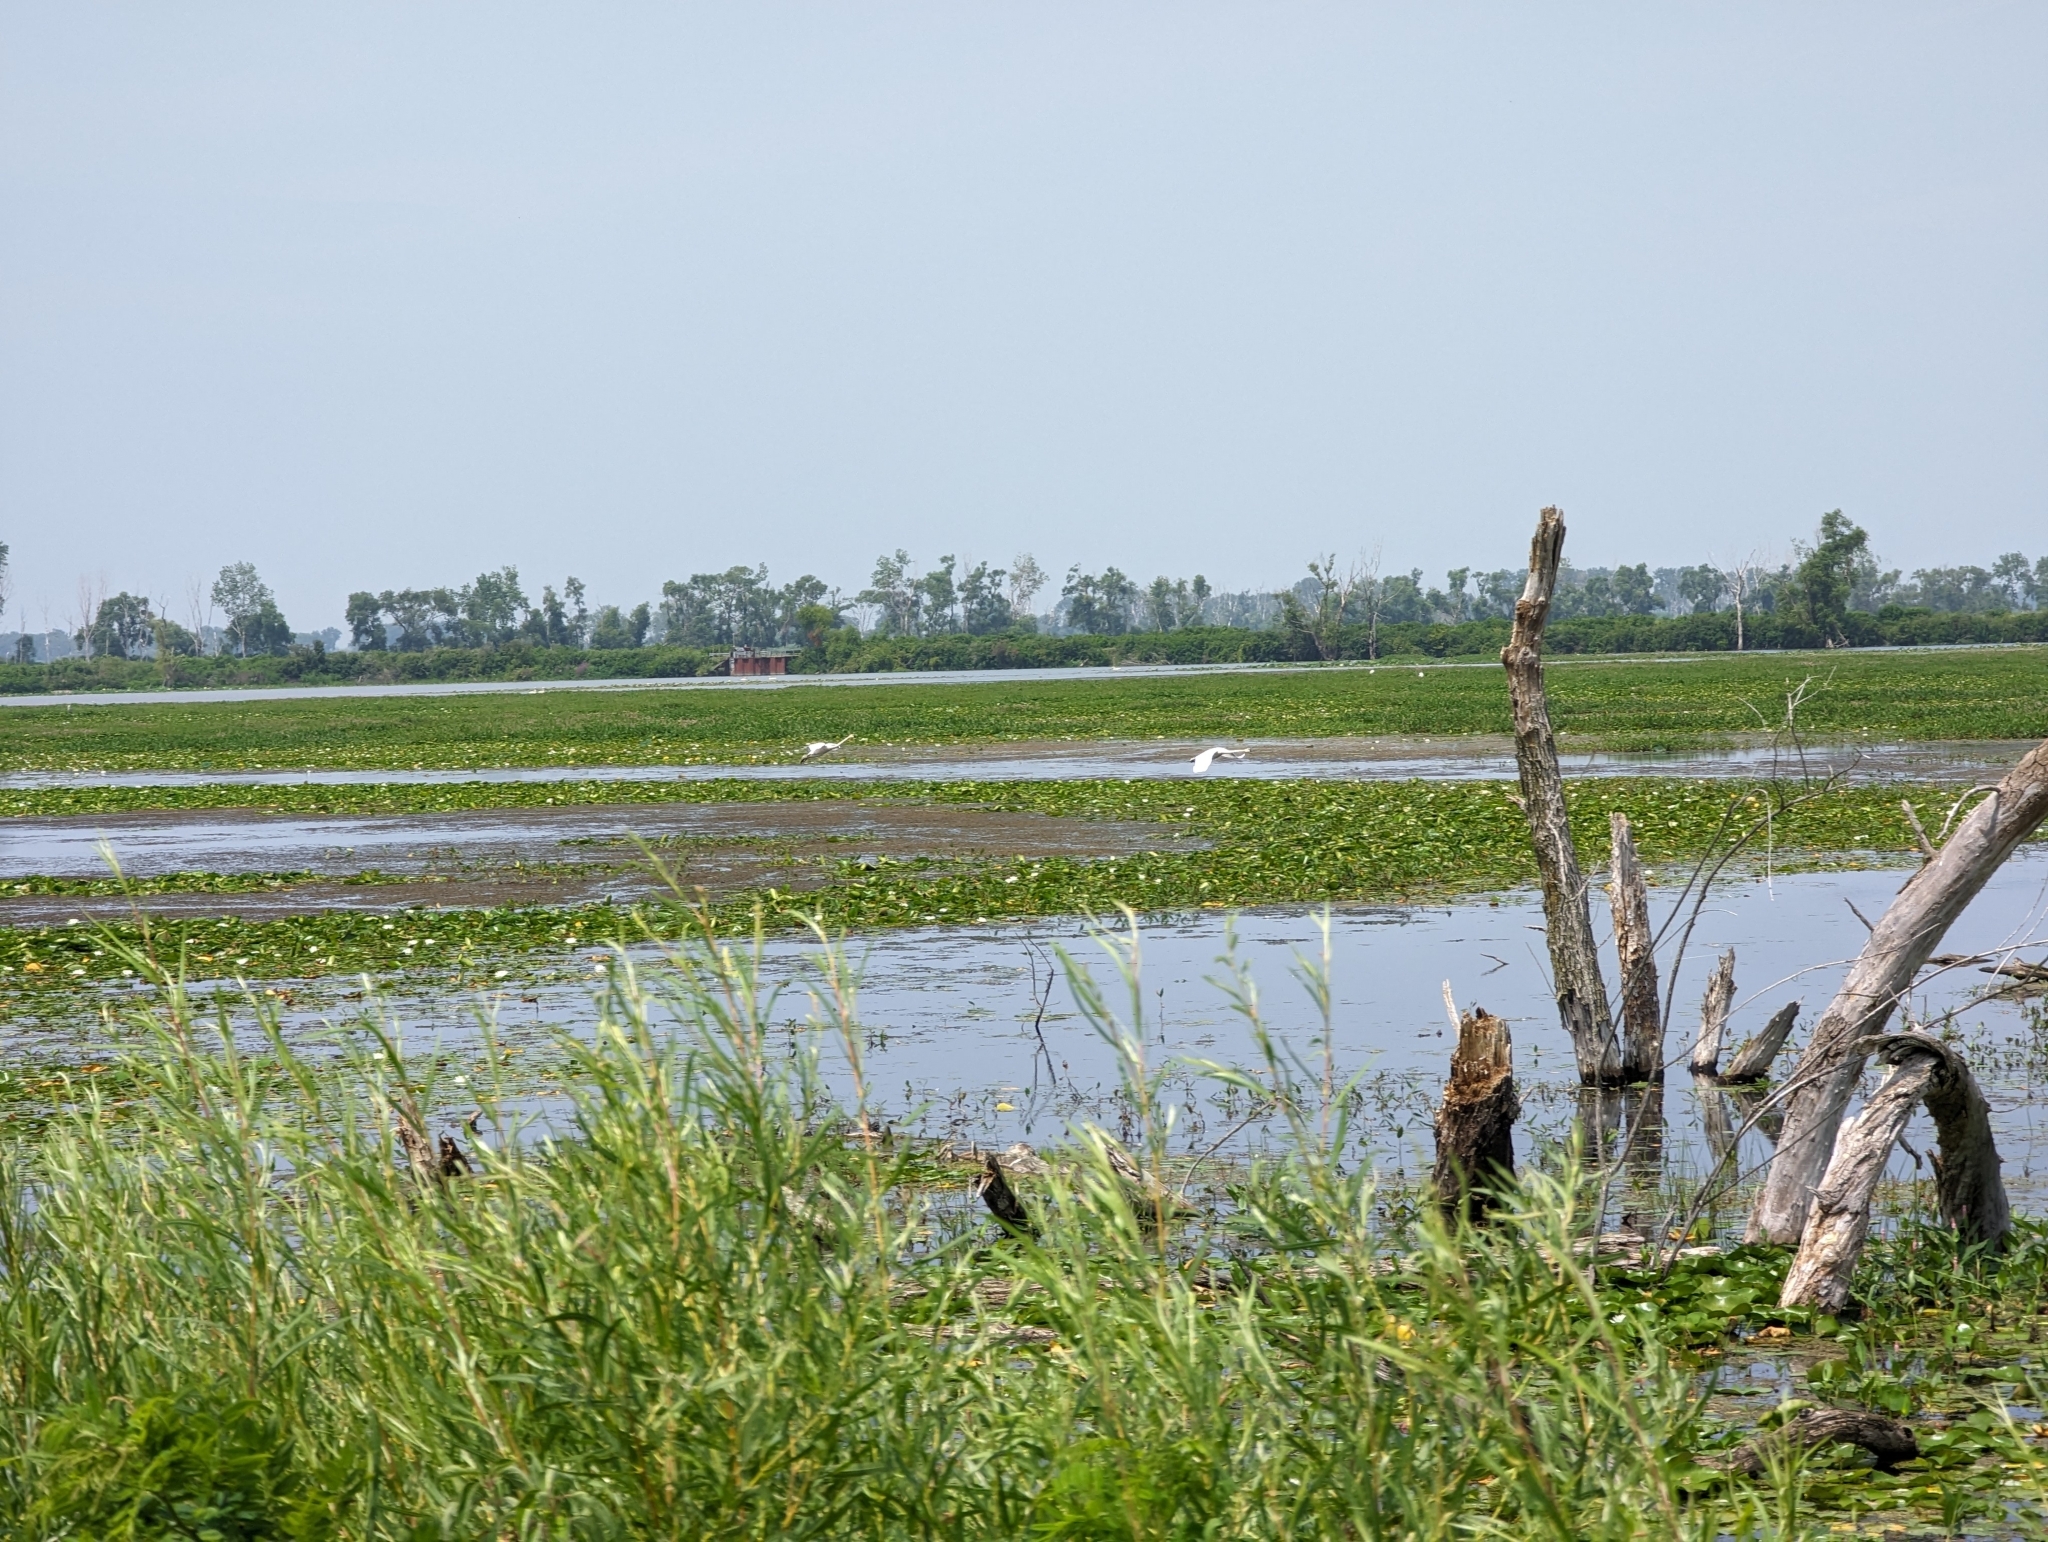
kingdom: Animalia
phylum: Chordata
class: Aves
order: Anseriformes
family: Anatidae
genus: Cygnus
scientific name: Cygnus buccinator
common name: Trumpeter swan
